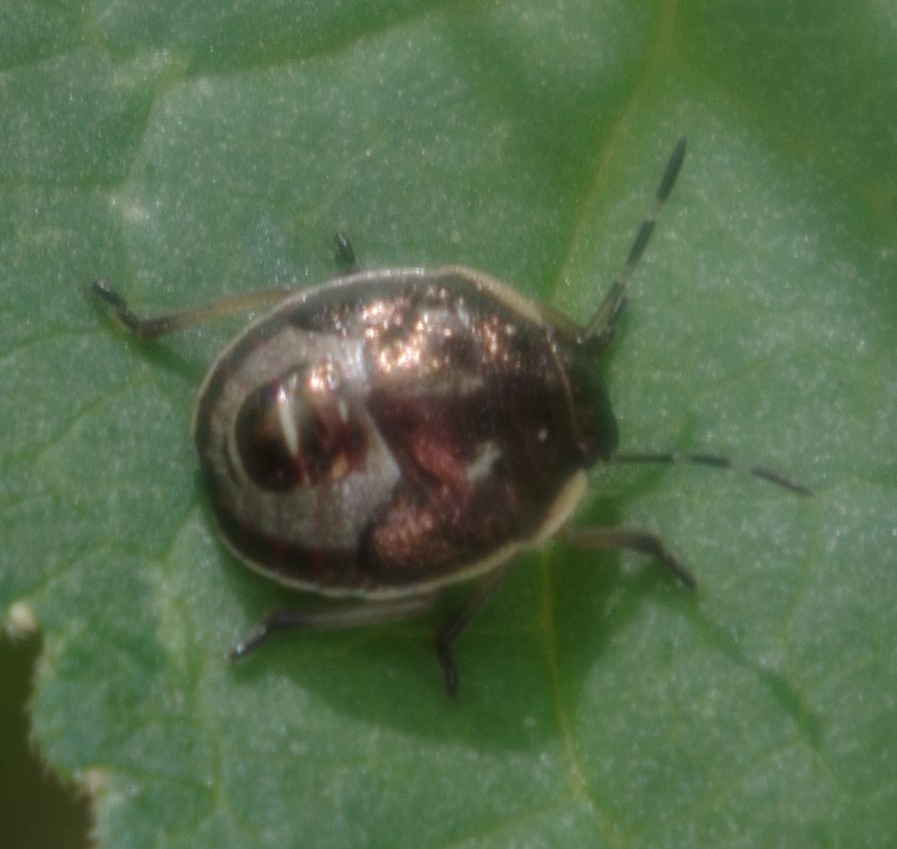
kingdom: Animalia
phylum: Arthropoda
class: Insecta
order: Hemiptera
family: Pentatomidae
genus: Holcostethus
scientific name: Holcostethus sphacelatus
